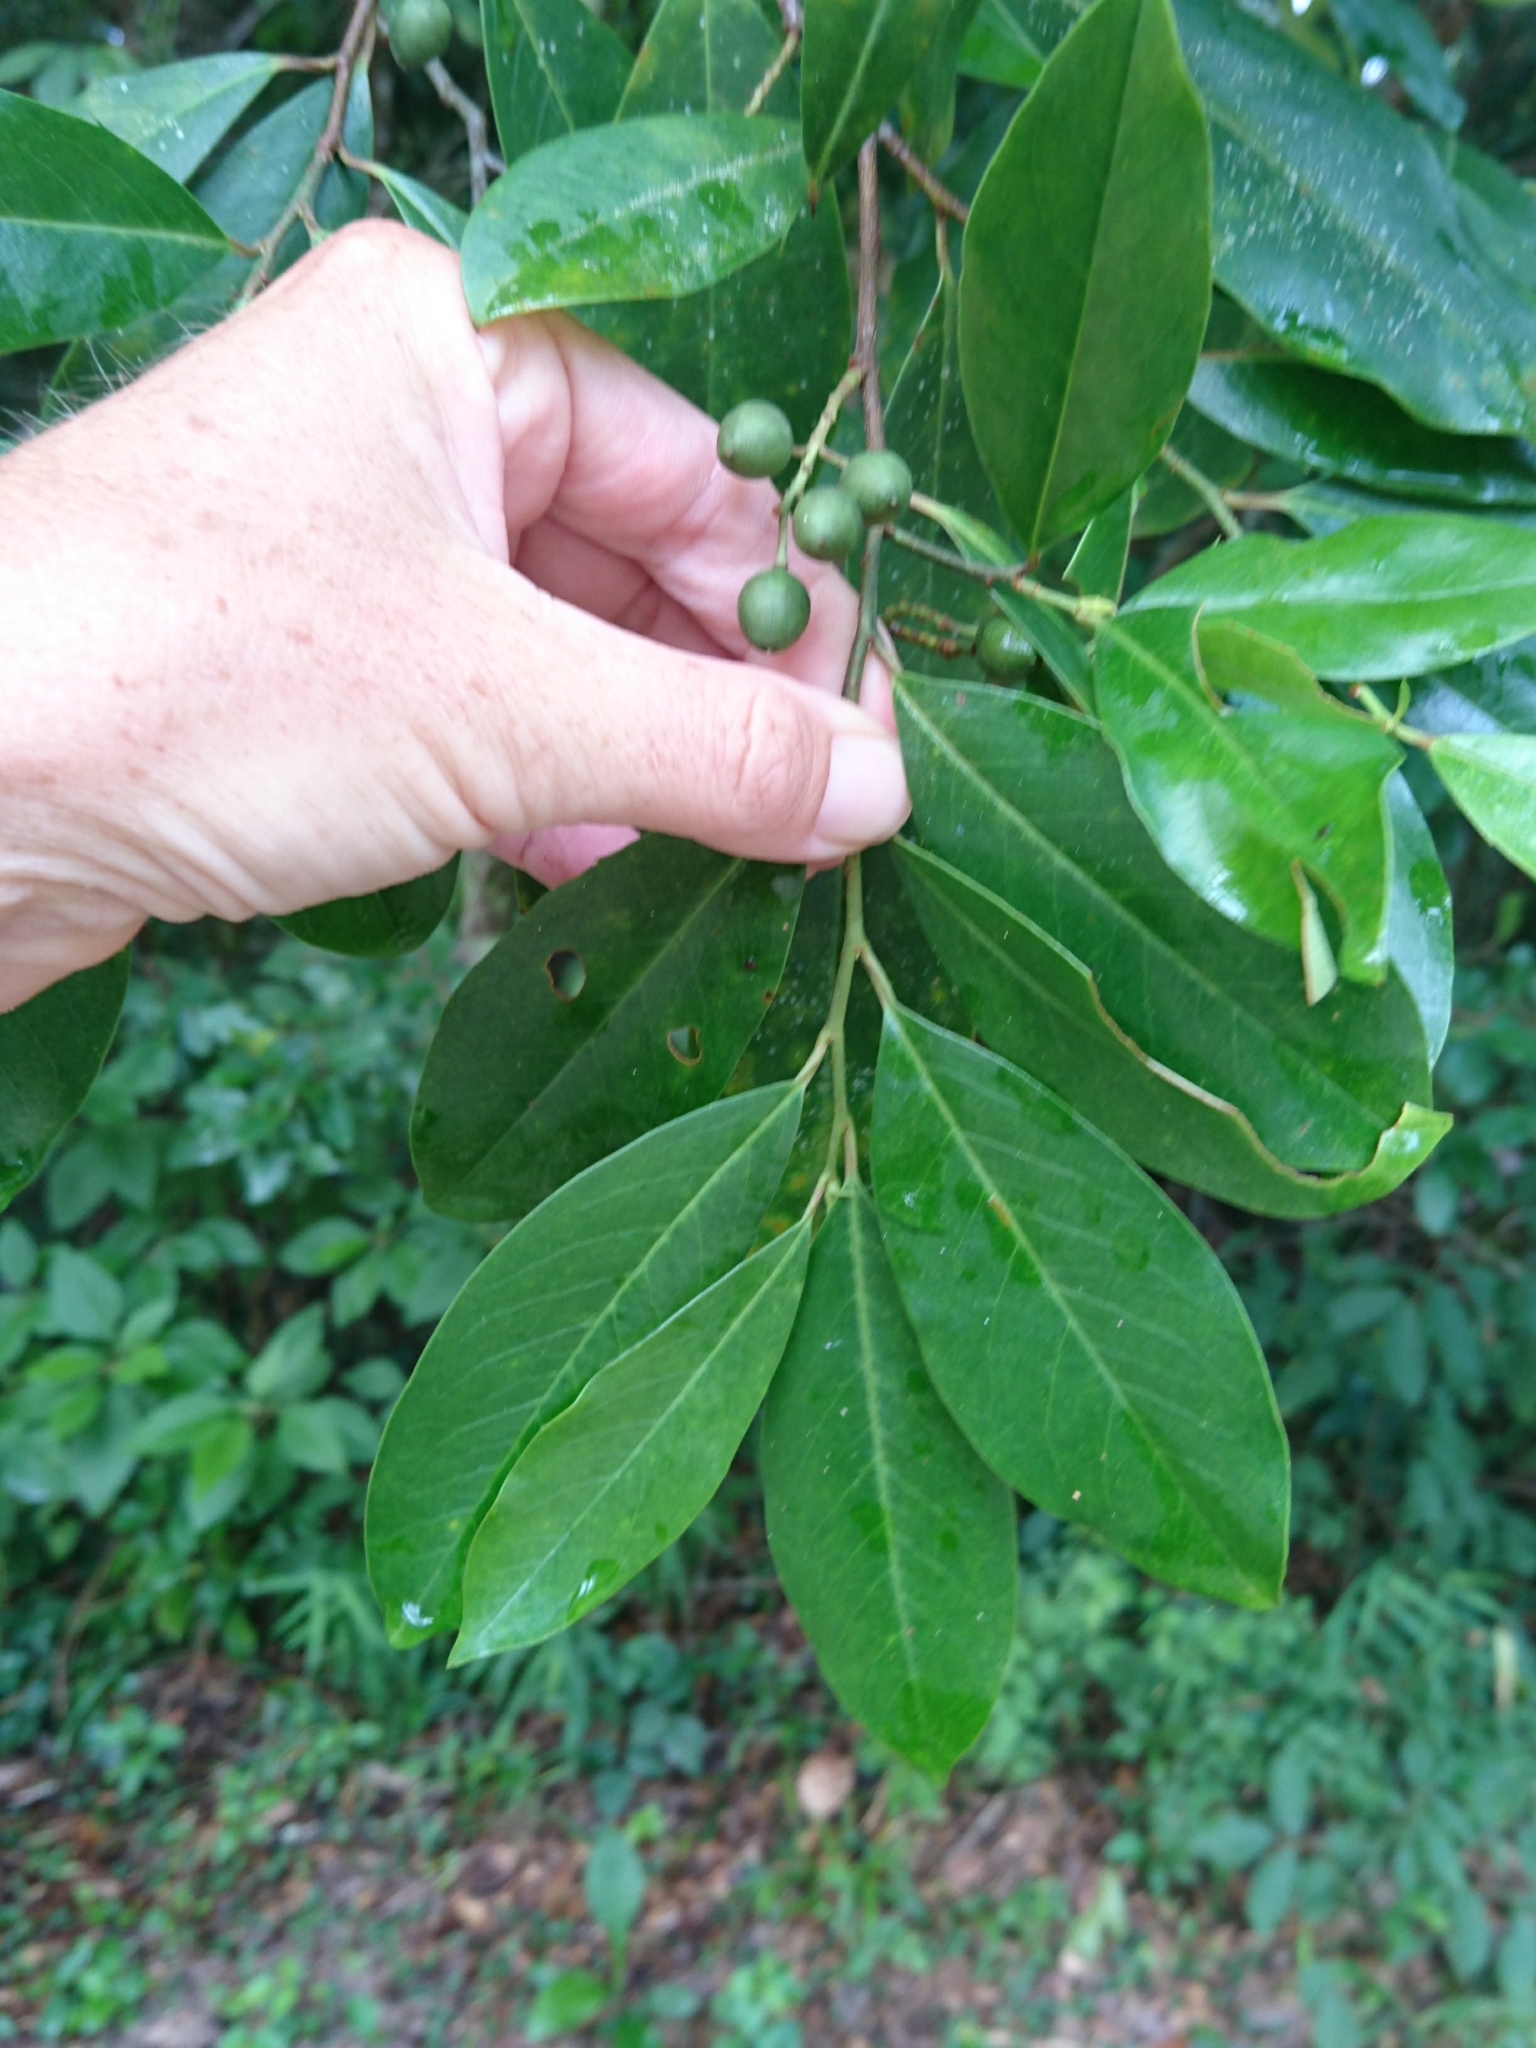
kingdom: Plantae
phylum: Tracheophyta
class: Magnoliopsida
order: Rosales
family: Rosaceae
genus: Prunus
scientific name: Prunus caroliniana
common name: Carolina laurel cherry
